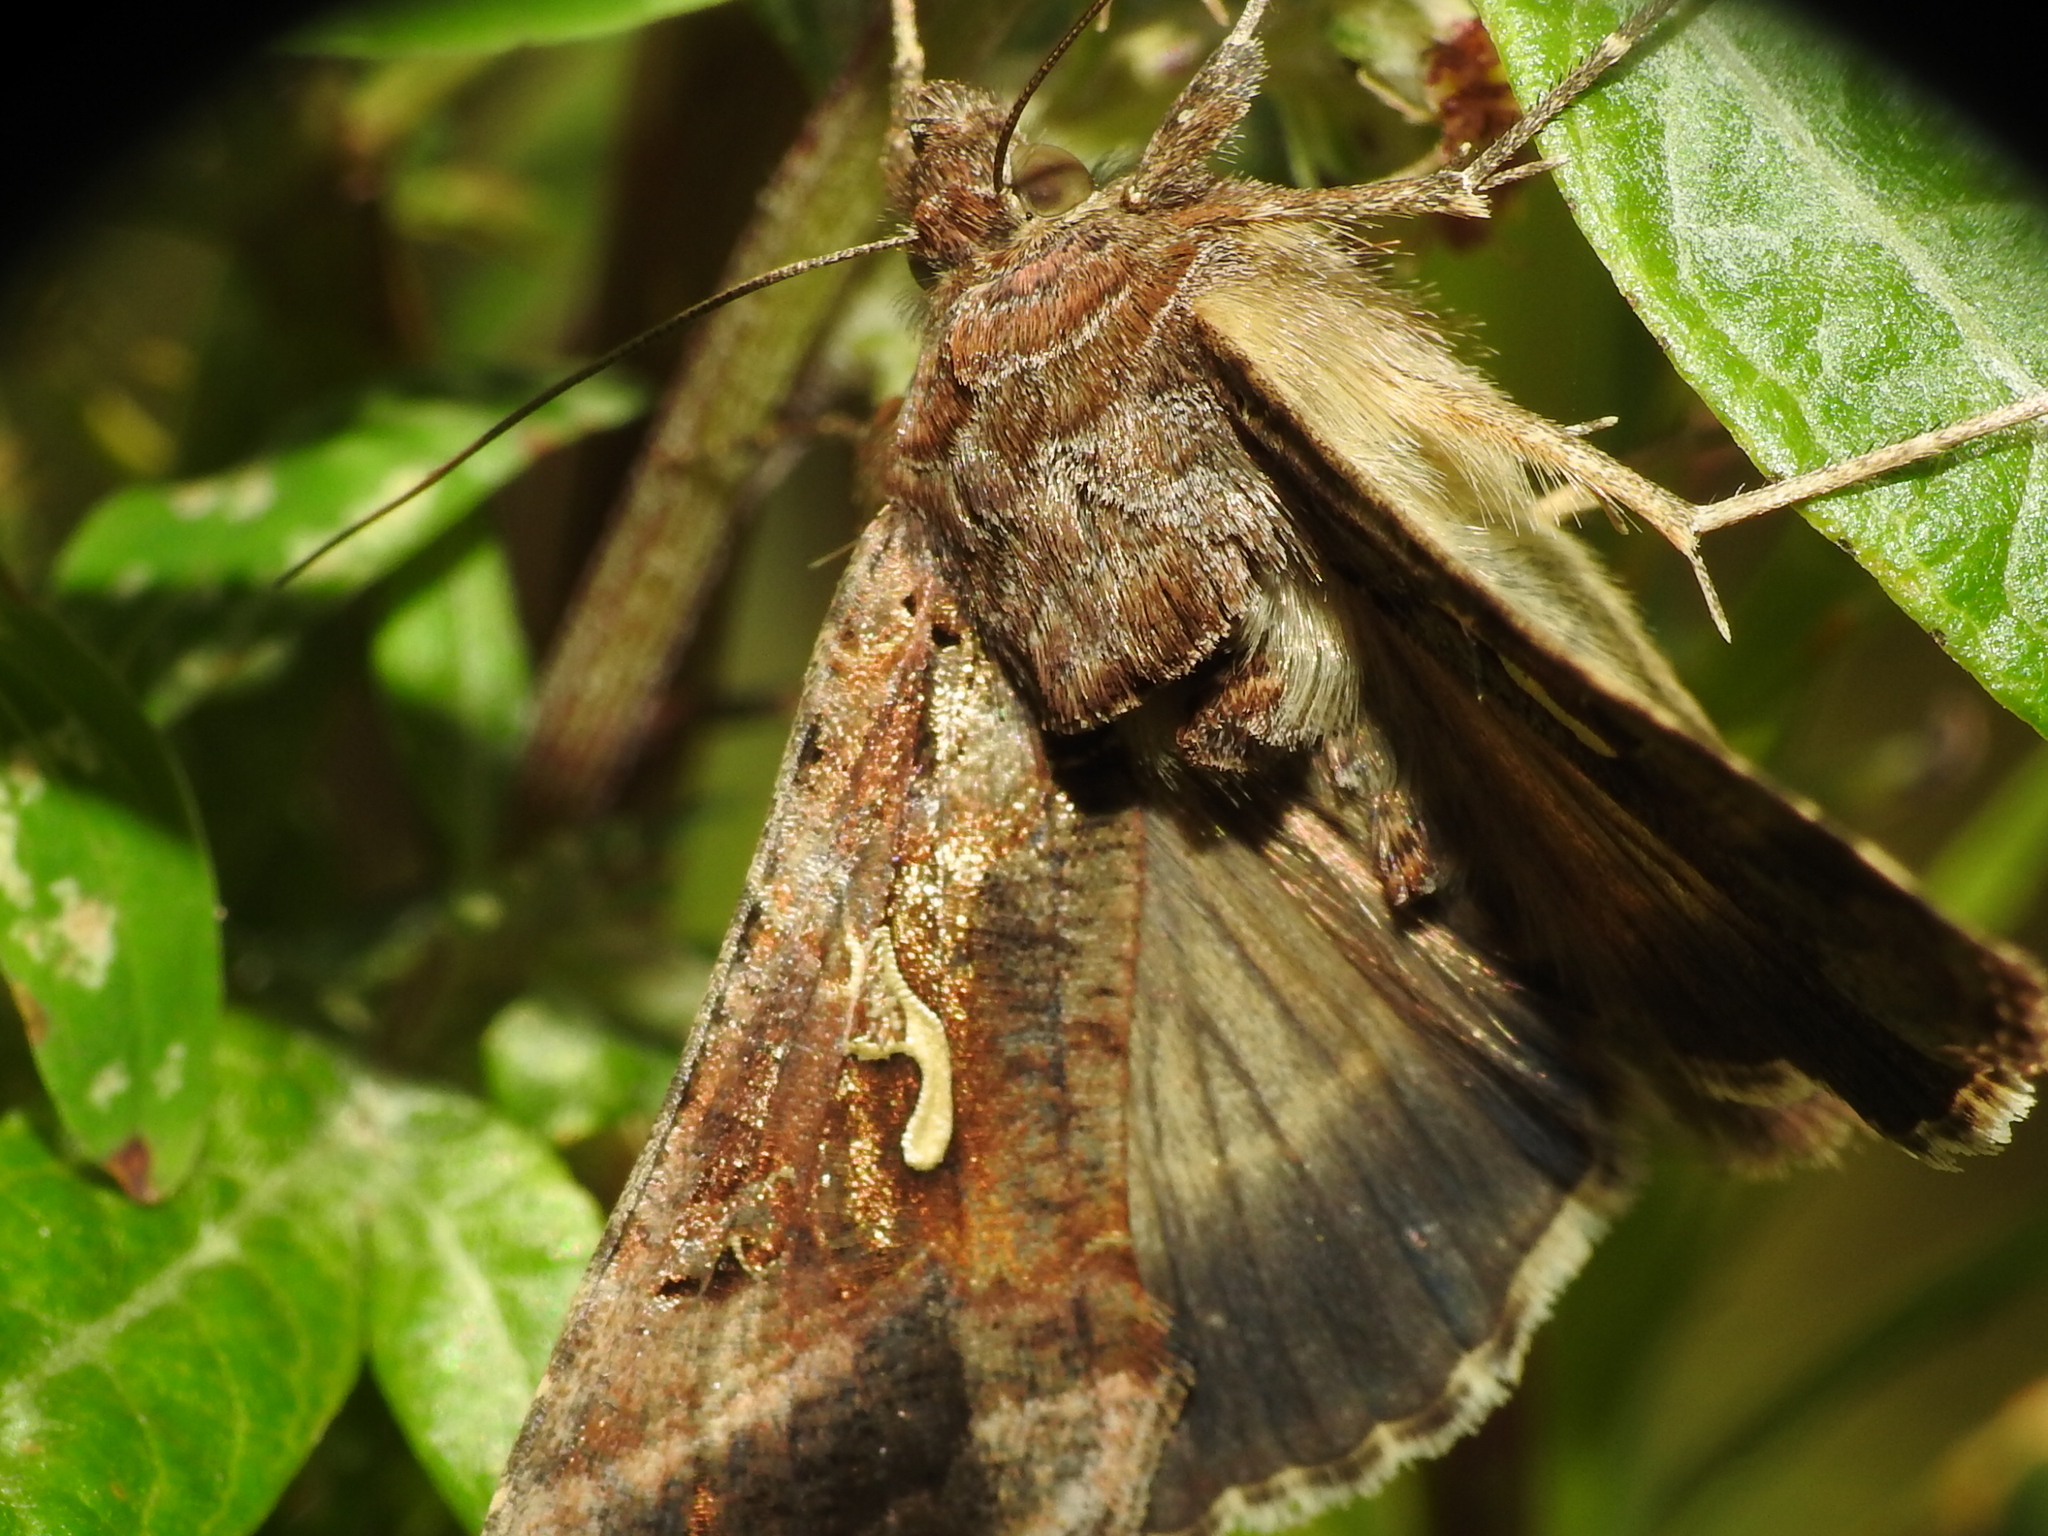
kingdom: Animalia
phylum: Arthropoda
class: Insecta
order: Lepidoptera
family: Noctuidae
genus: Autographa
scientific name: Autographa gamma
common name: Silver y
